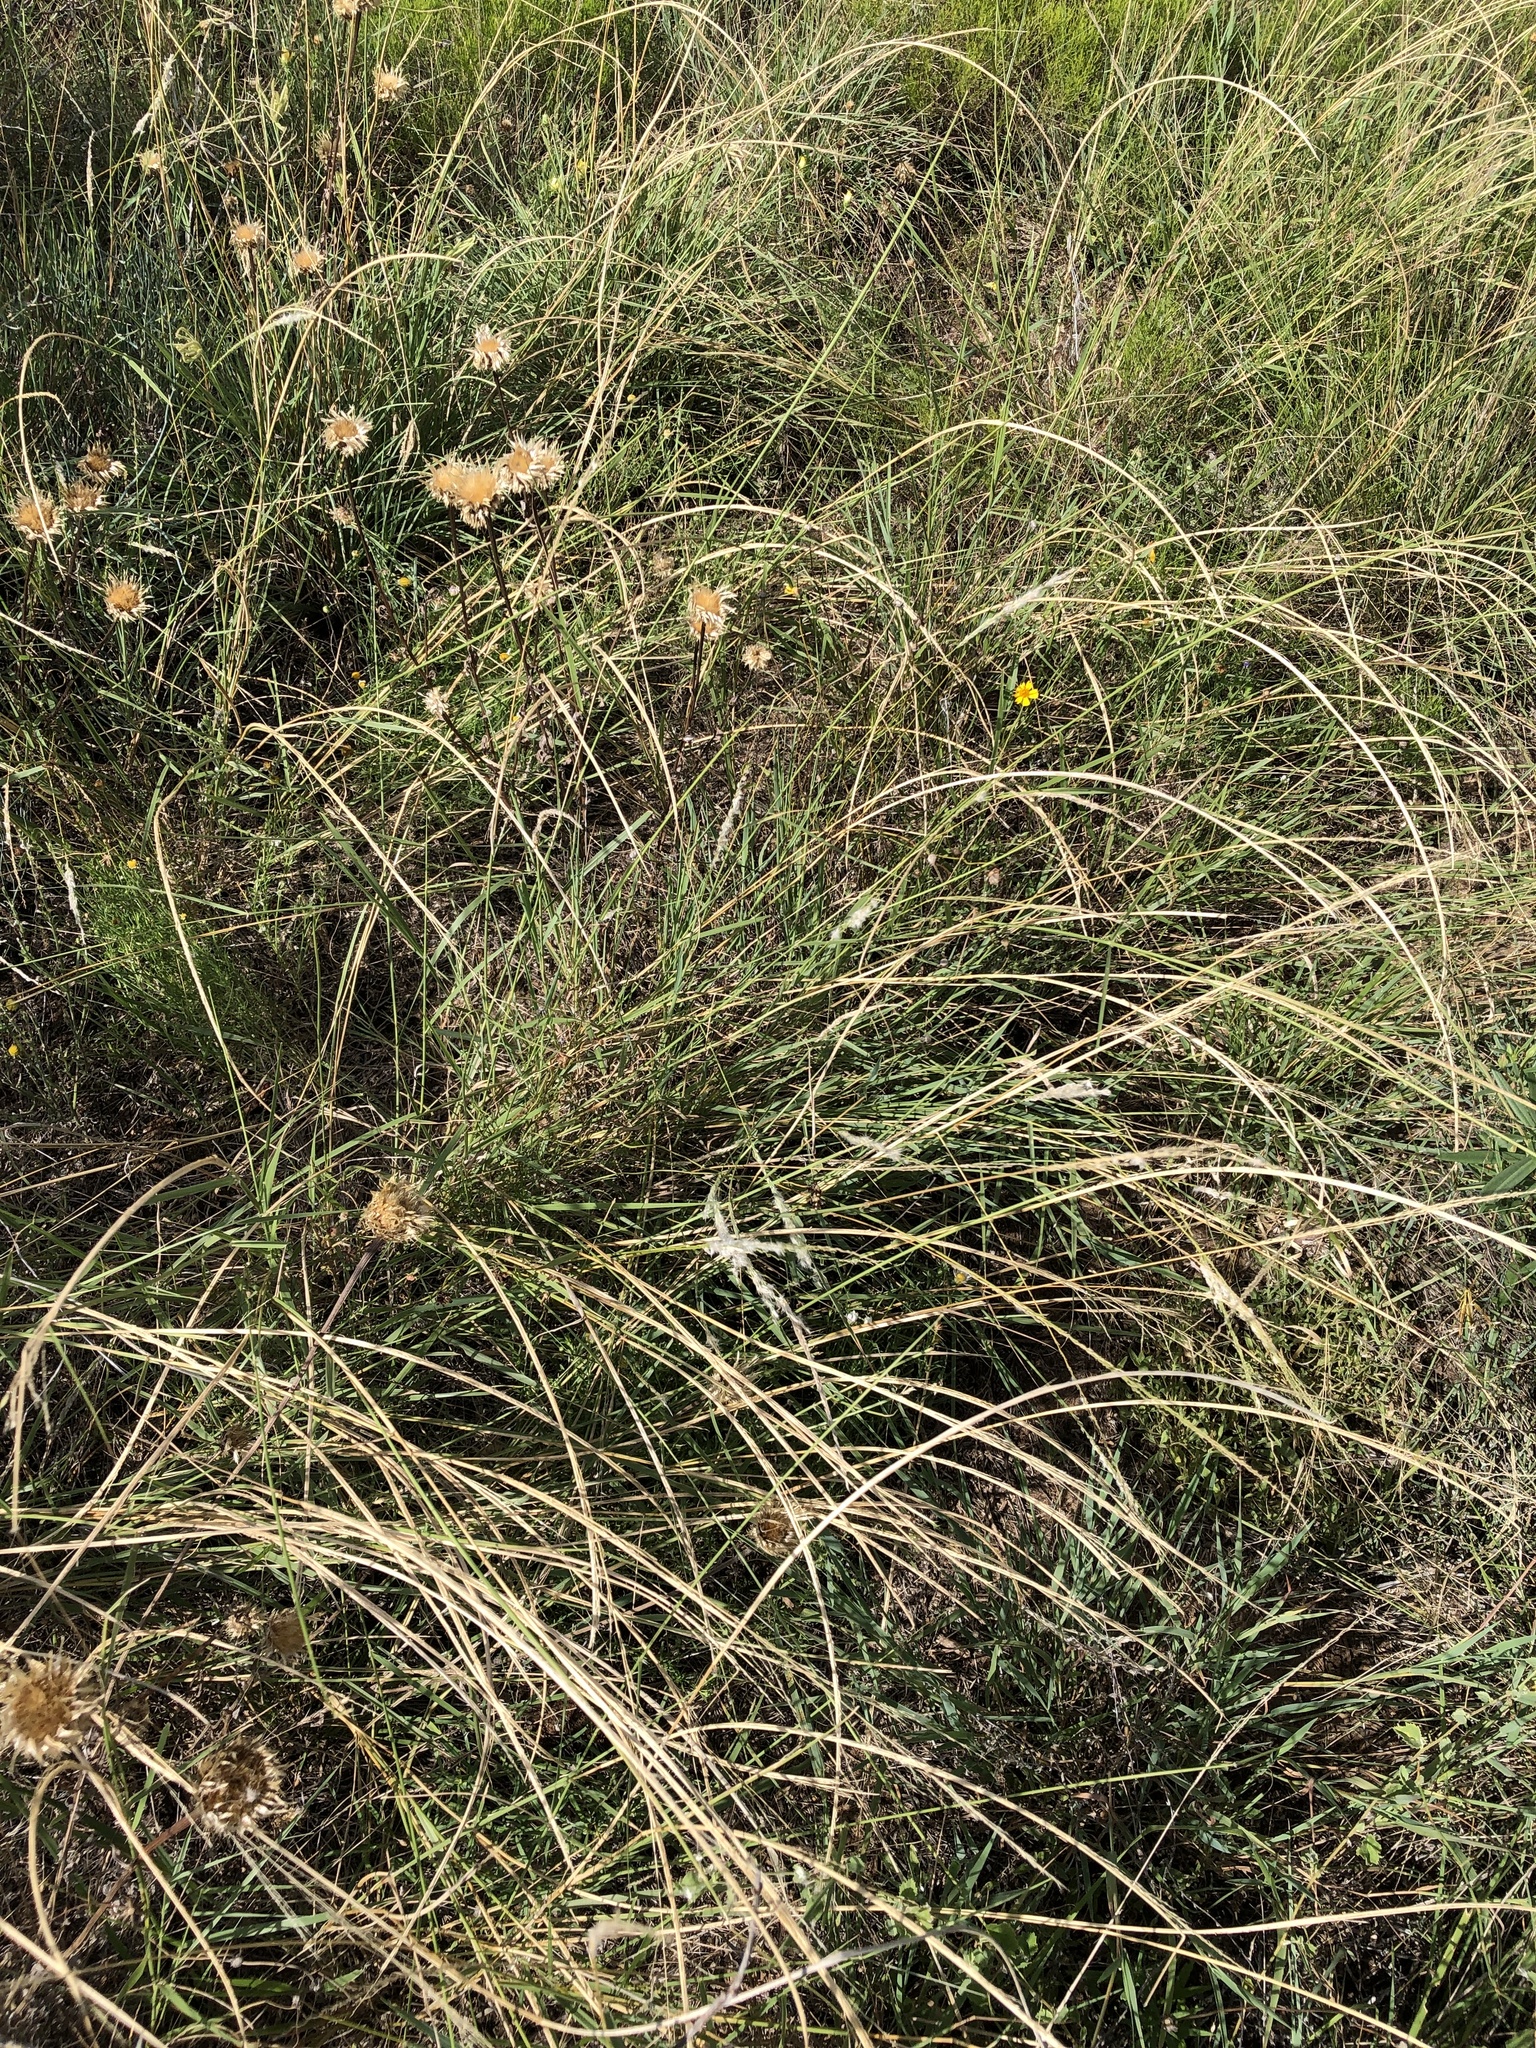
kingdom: Plantae
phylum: Tracheophyta
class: Liliopsida
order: Poales
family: Poaceae
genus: Digitaria
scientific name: Digitaria californica
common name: Arizona cottontop
